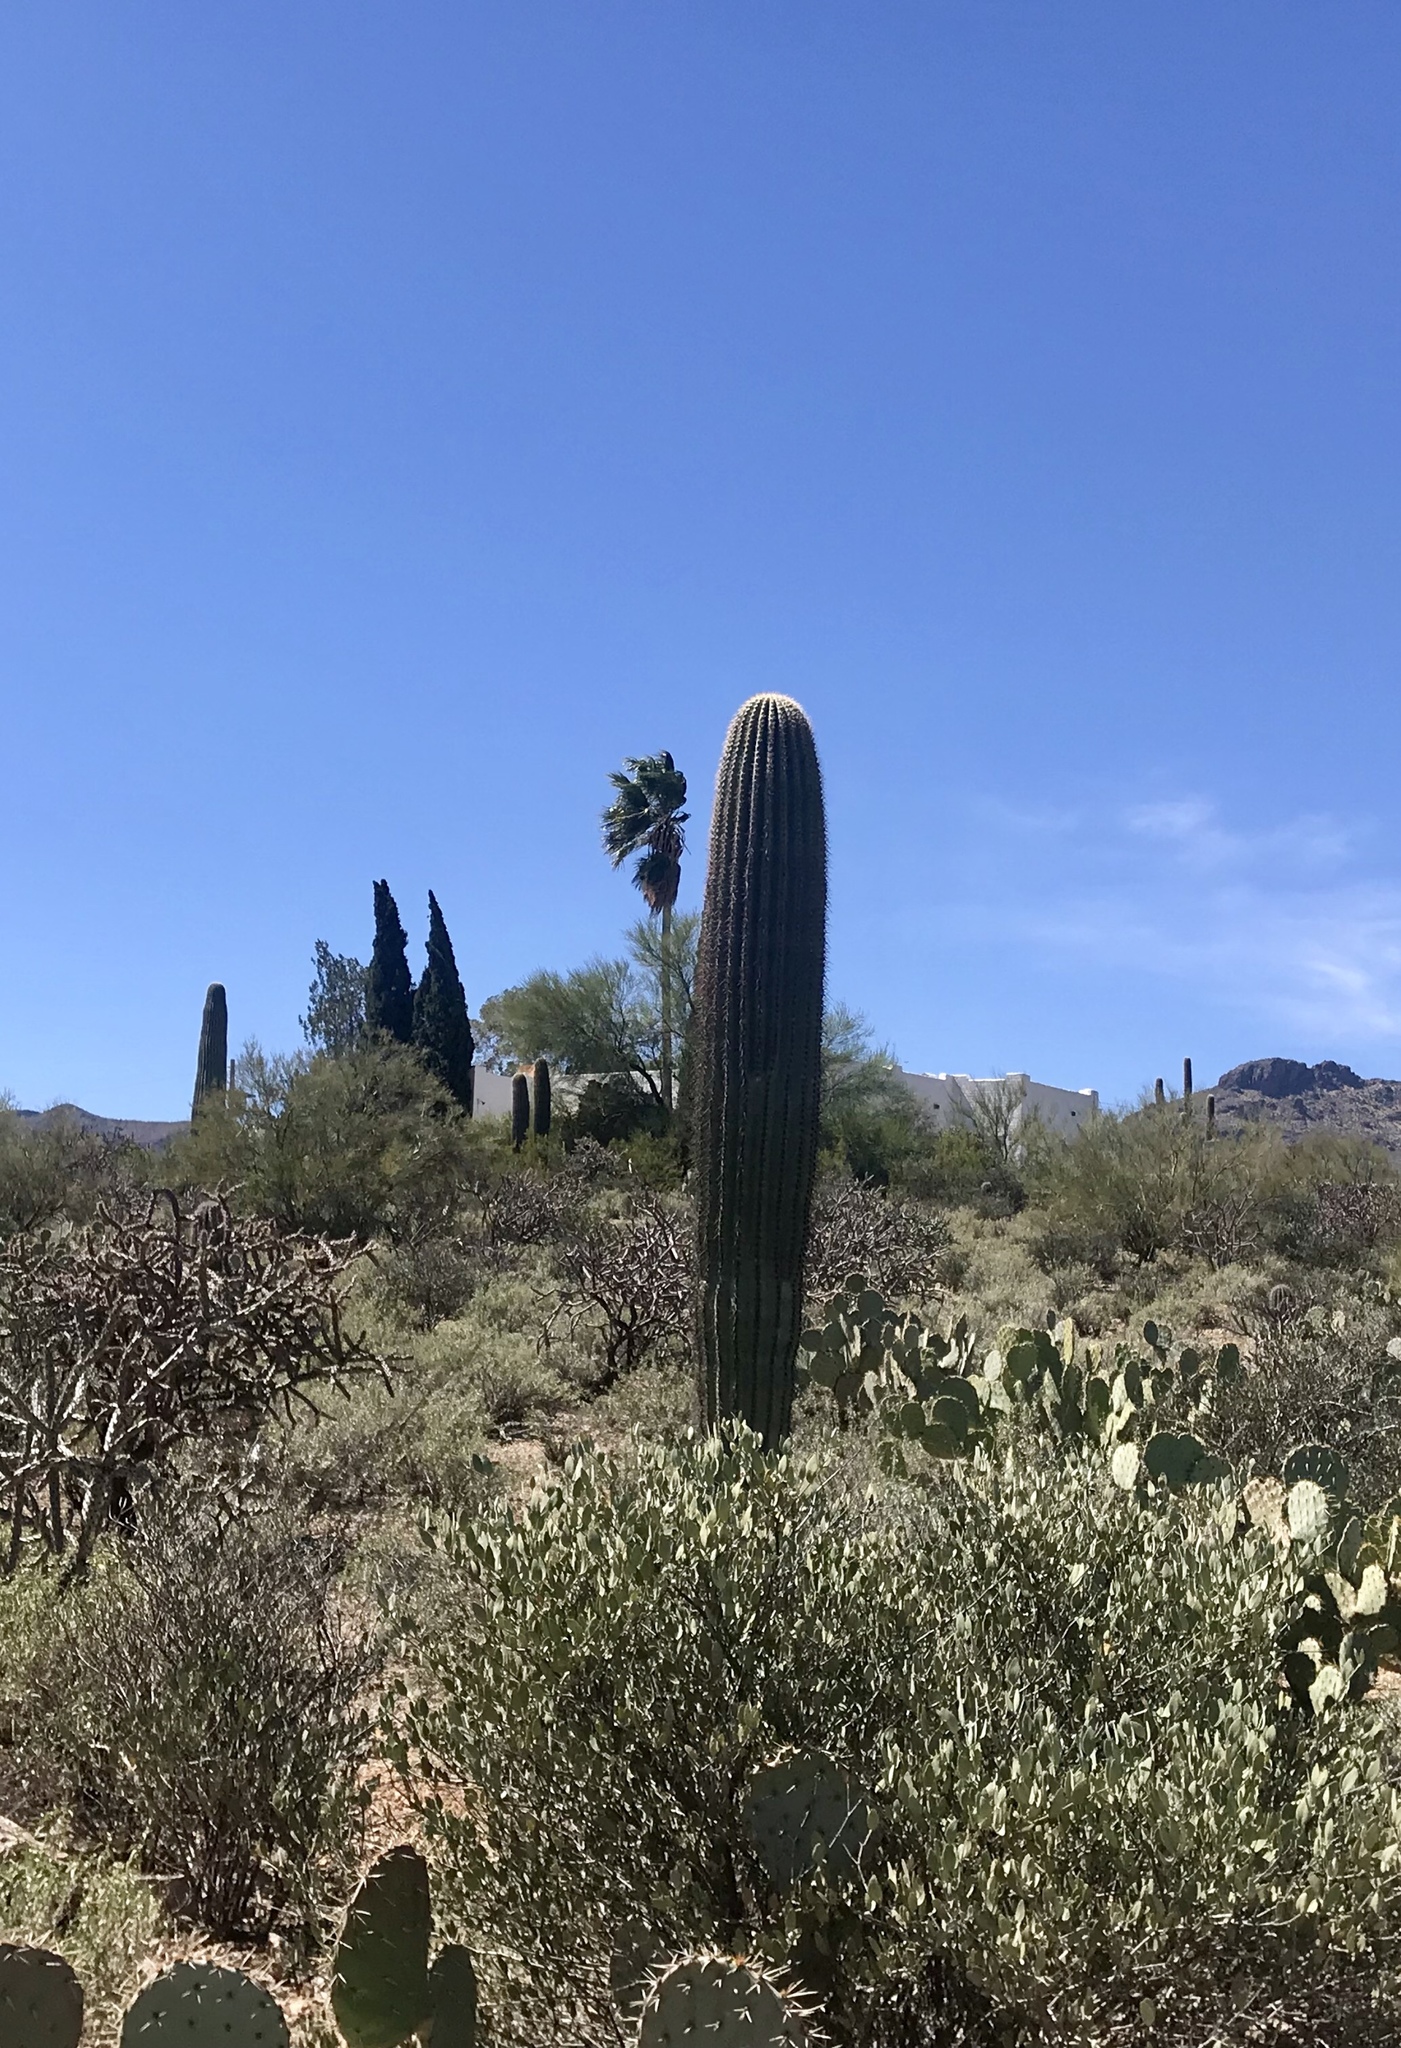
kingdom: Plantae
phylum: Tracheophyta
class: Magnoliopsida
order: Caryophyllales
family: Cactaceae
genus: Carnegiea
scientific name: Carnegiea gigantea
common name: Saguaro
